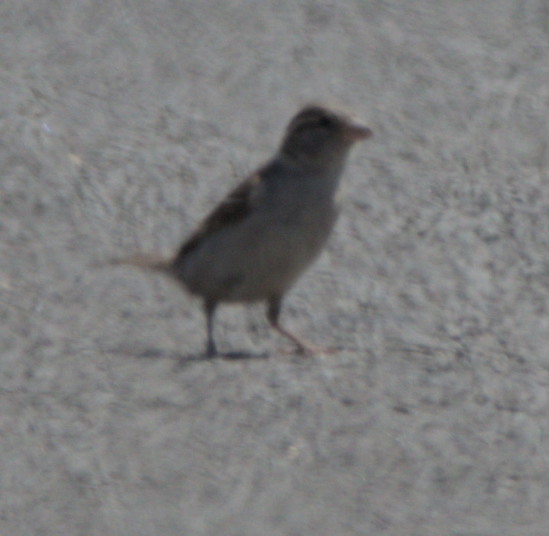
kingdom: Animalia
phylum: Chordata
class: Aves
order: Passeriformes
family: Passeridae
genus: Passer
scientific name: Passer domesticus
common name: House sparrow
